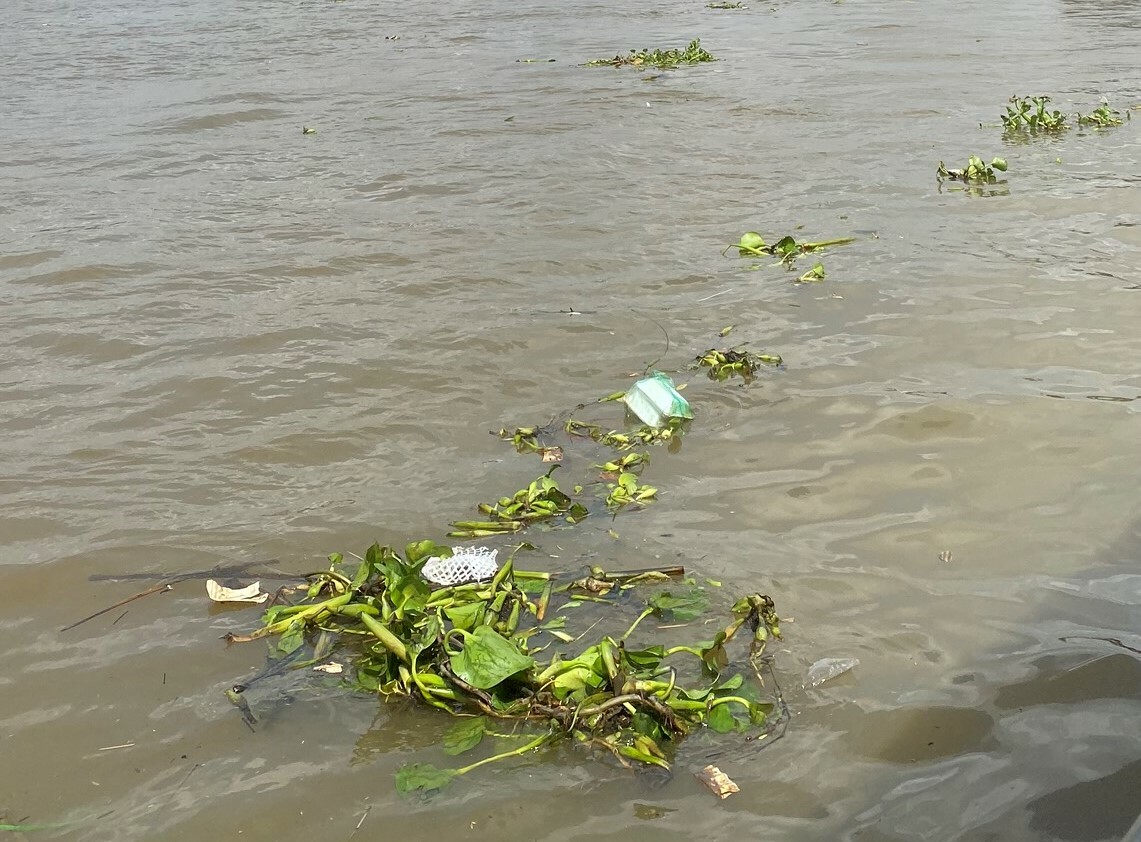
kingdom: Plantae
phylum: Tracheophyta
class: Liliopsida
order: Commelinales
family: Pontederiaceae
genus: Pontederia
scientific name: Pontederia crassipes
